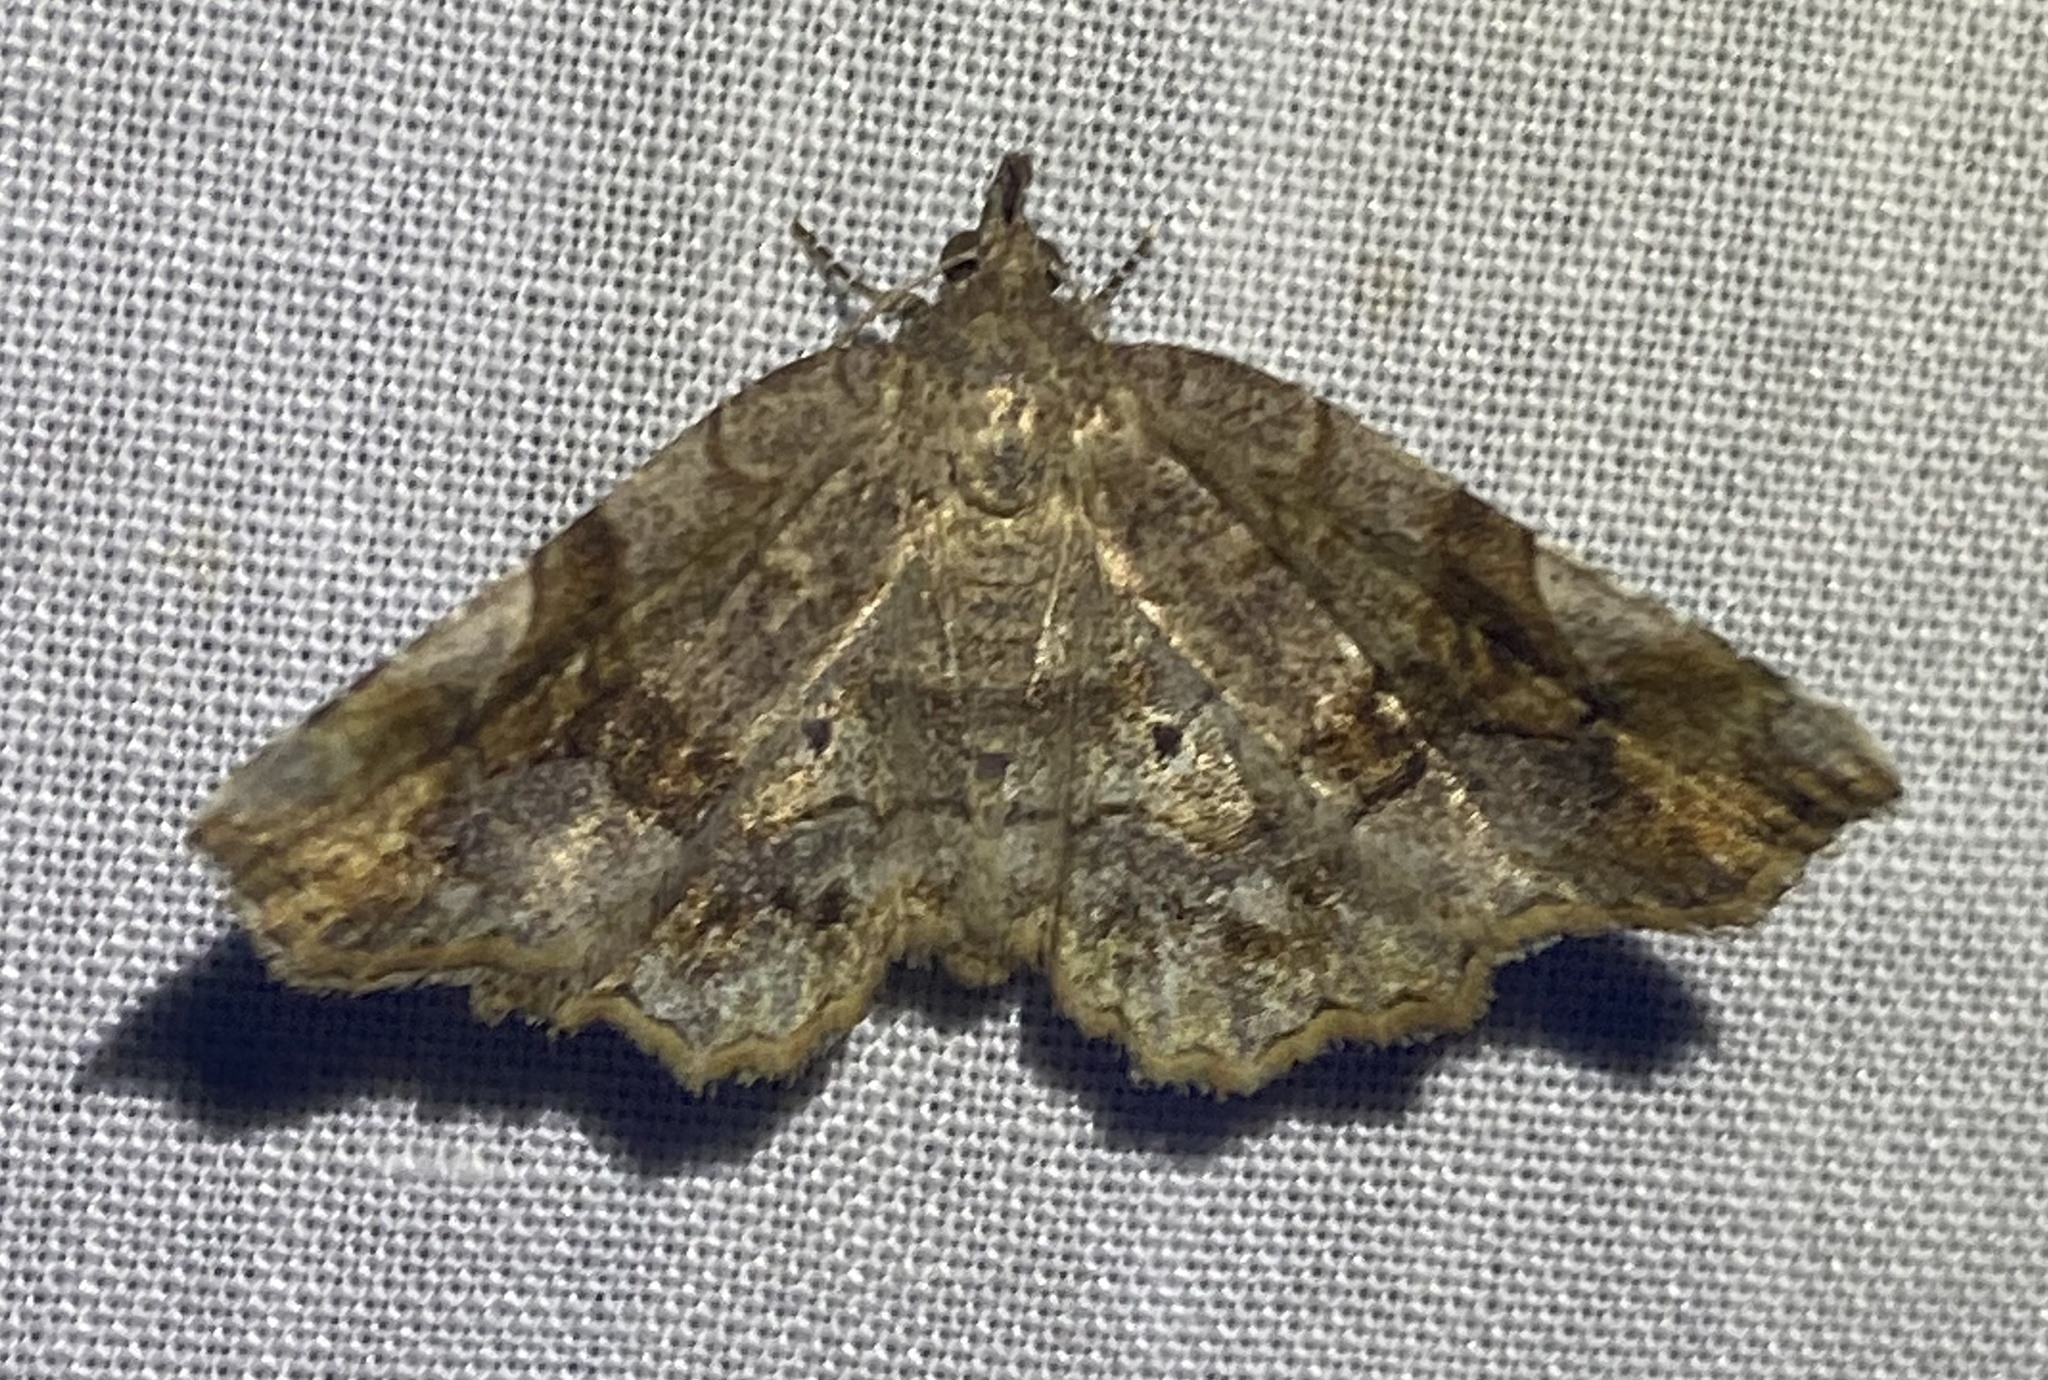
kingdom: Animalia
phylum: Arthropoda
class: Insecta
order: Lepidoptera
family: Erebidae
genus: Pangrapta
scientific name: Pangrapta decoralis
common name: Decorated owlet
